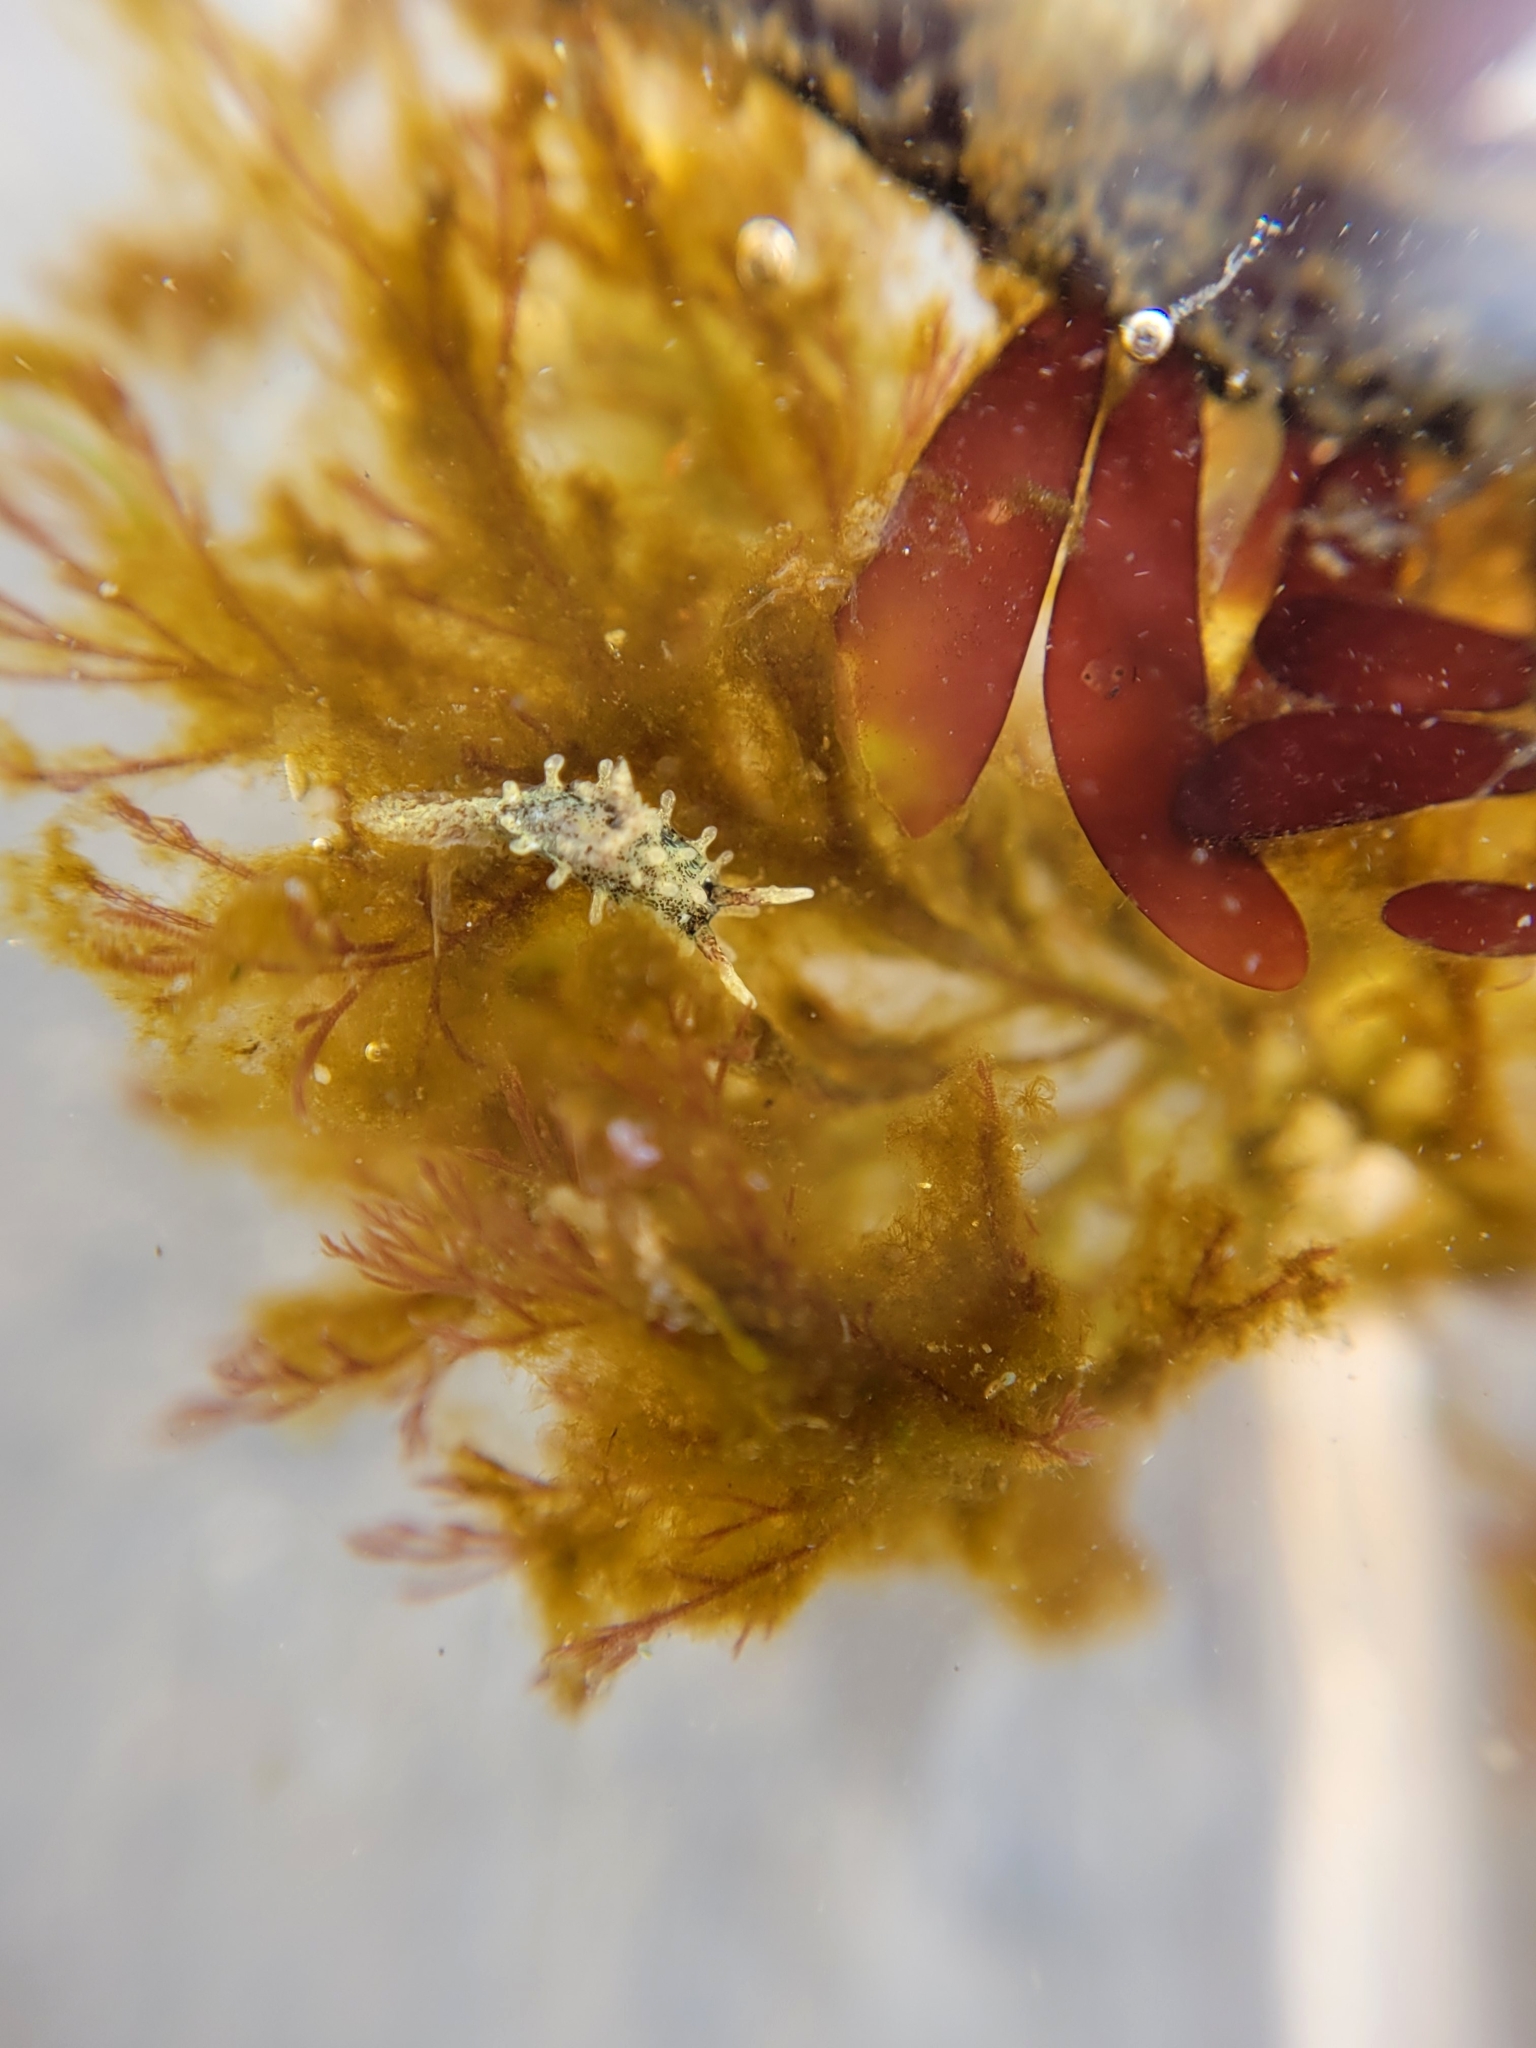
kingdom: Animalia
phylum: Mollusca
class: Gastropoda
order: Nudibranchia
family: Goniodorididae
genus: Okenia
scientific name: Okenia
